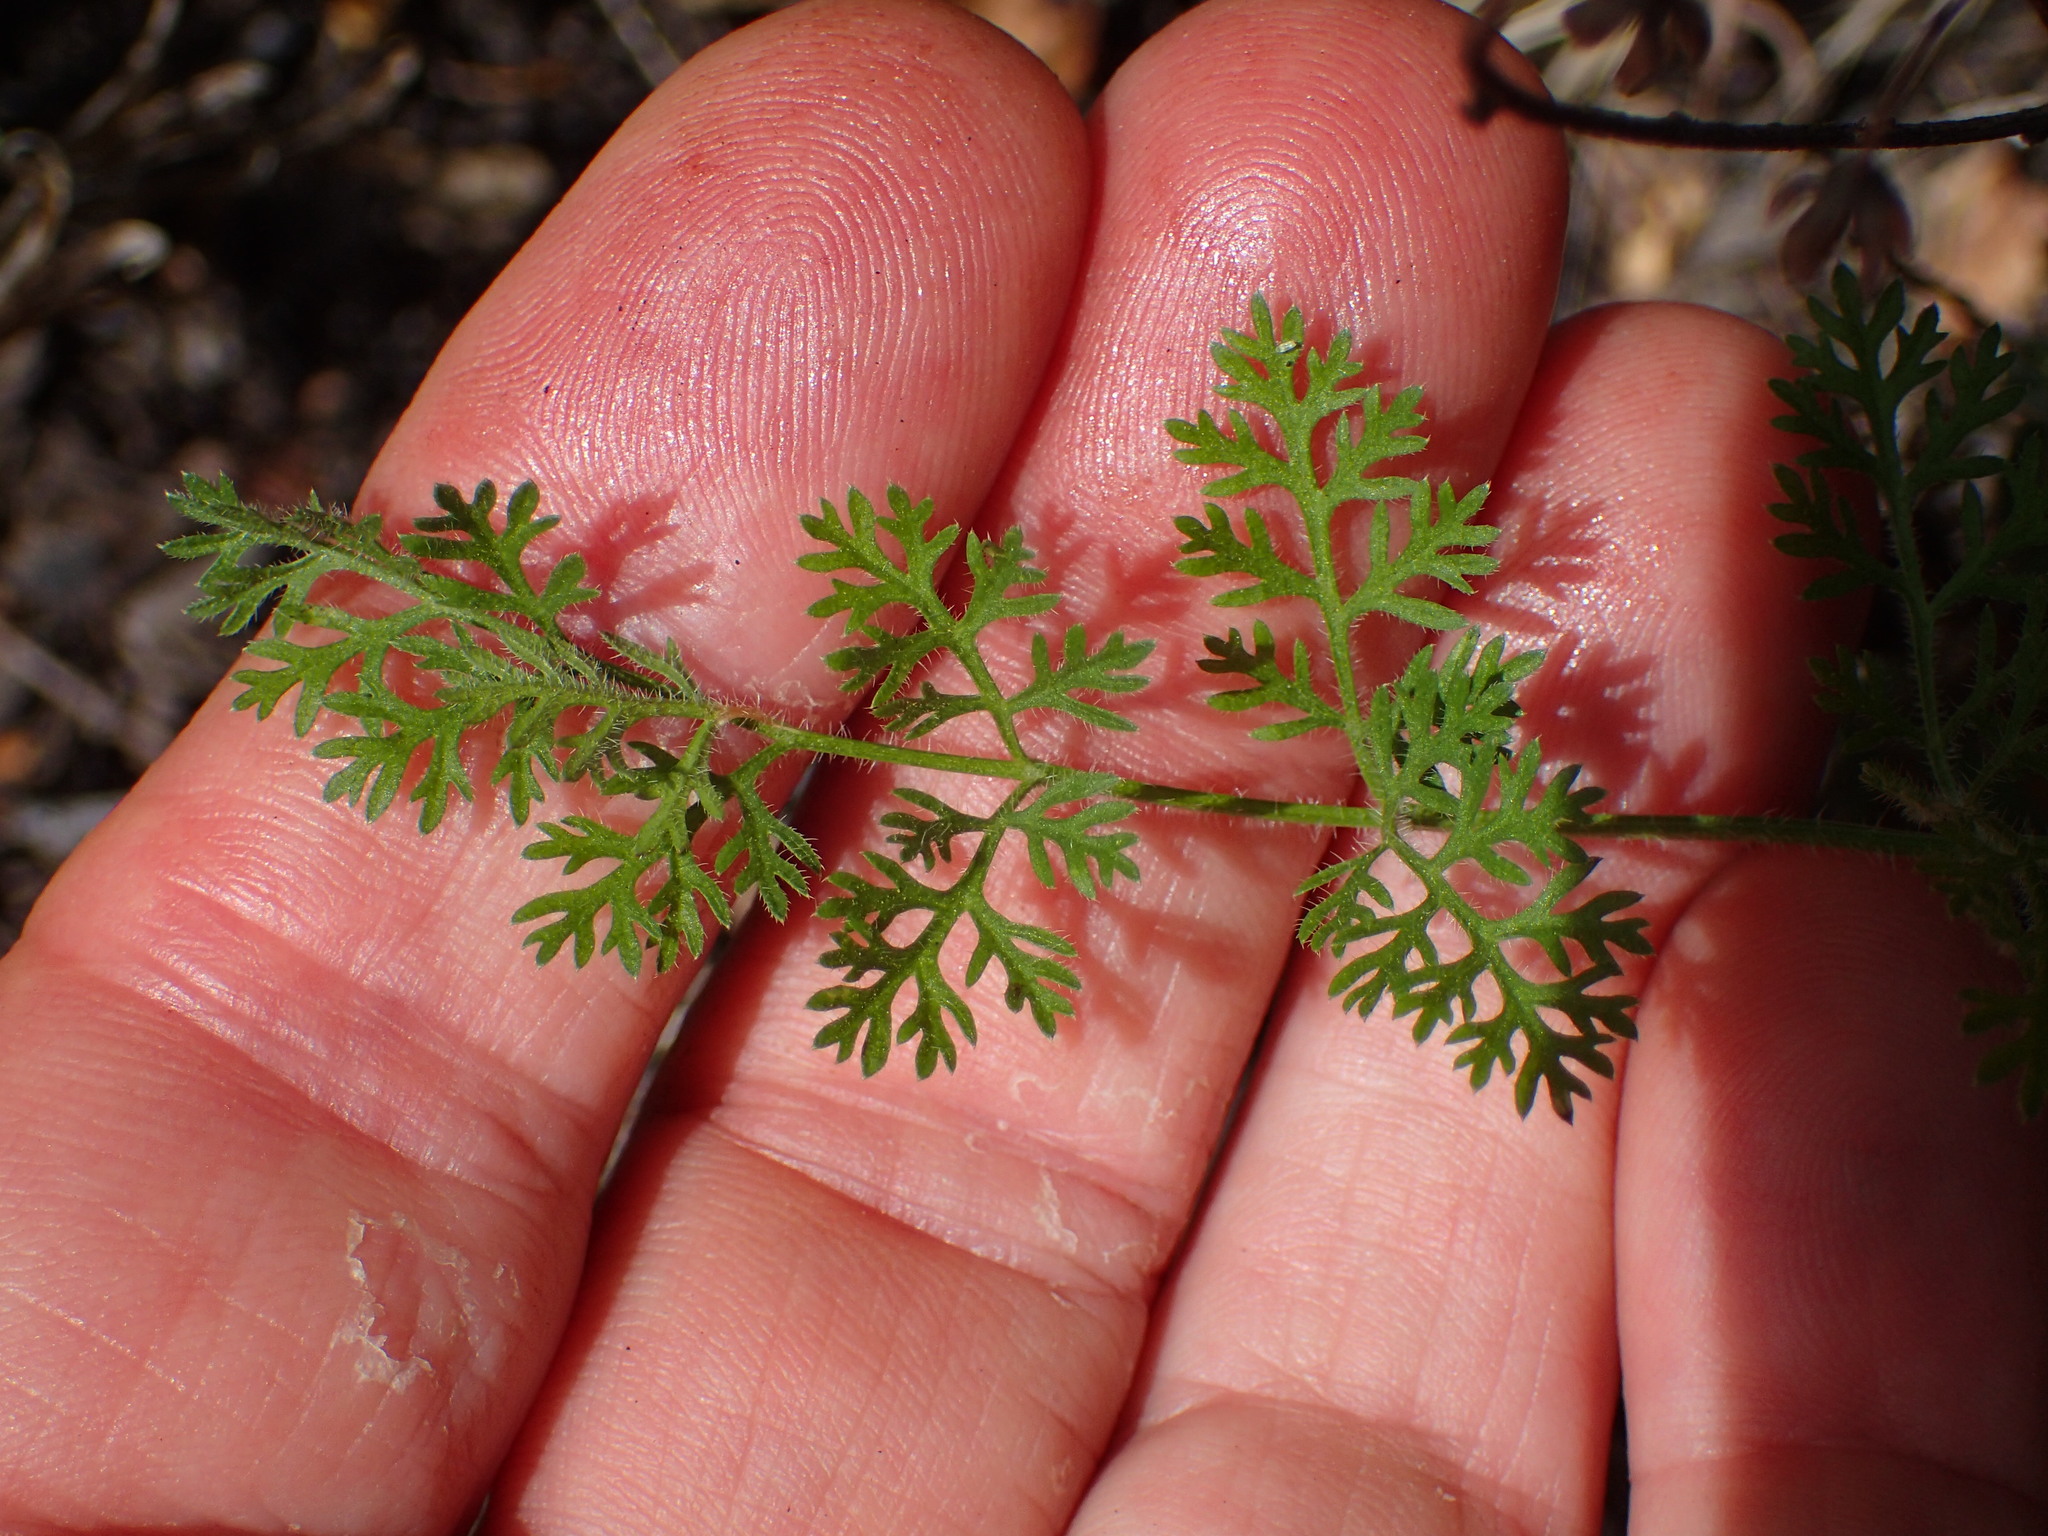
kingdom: Plantae
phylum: Tracheophyta
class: Magnoliopsida
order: Apiales
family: Apiaceae
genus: Daucus
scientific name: Daucus pusillus
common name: Southwest wild carrot
